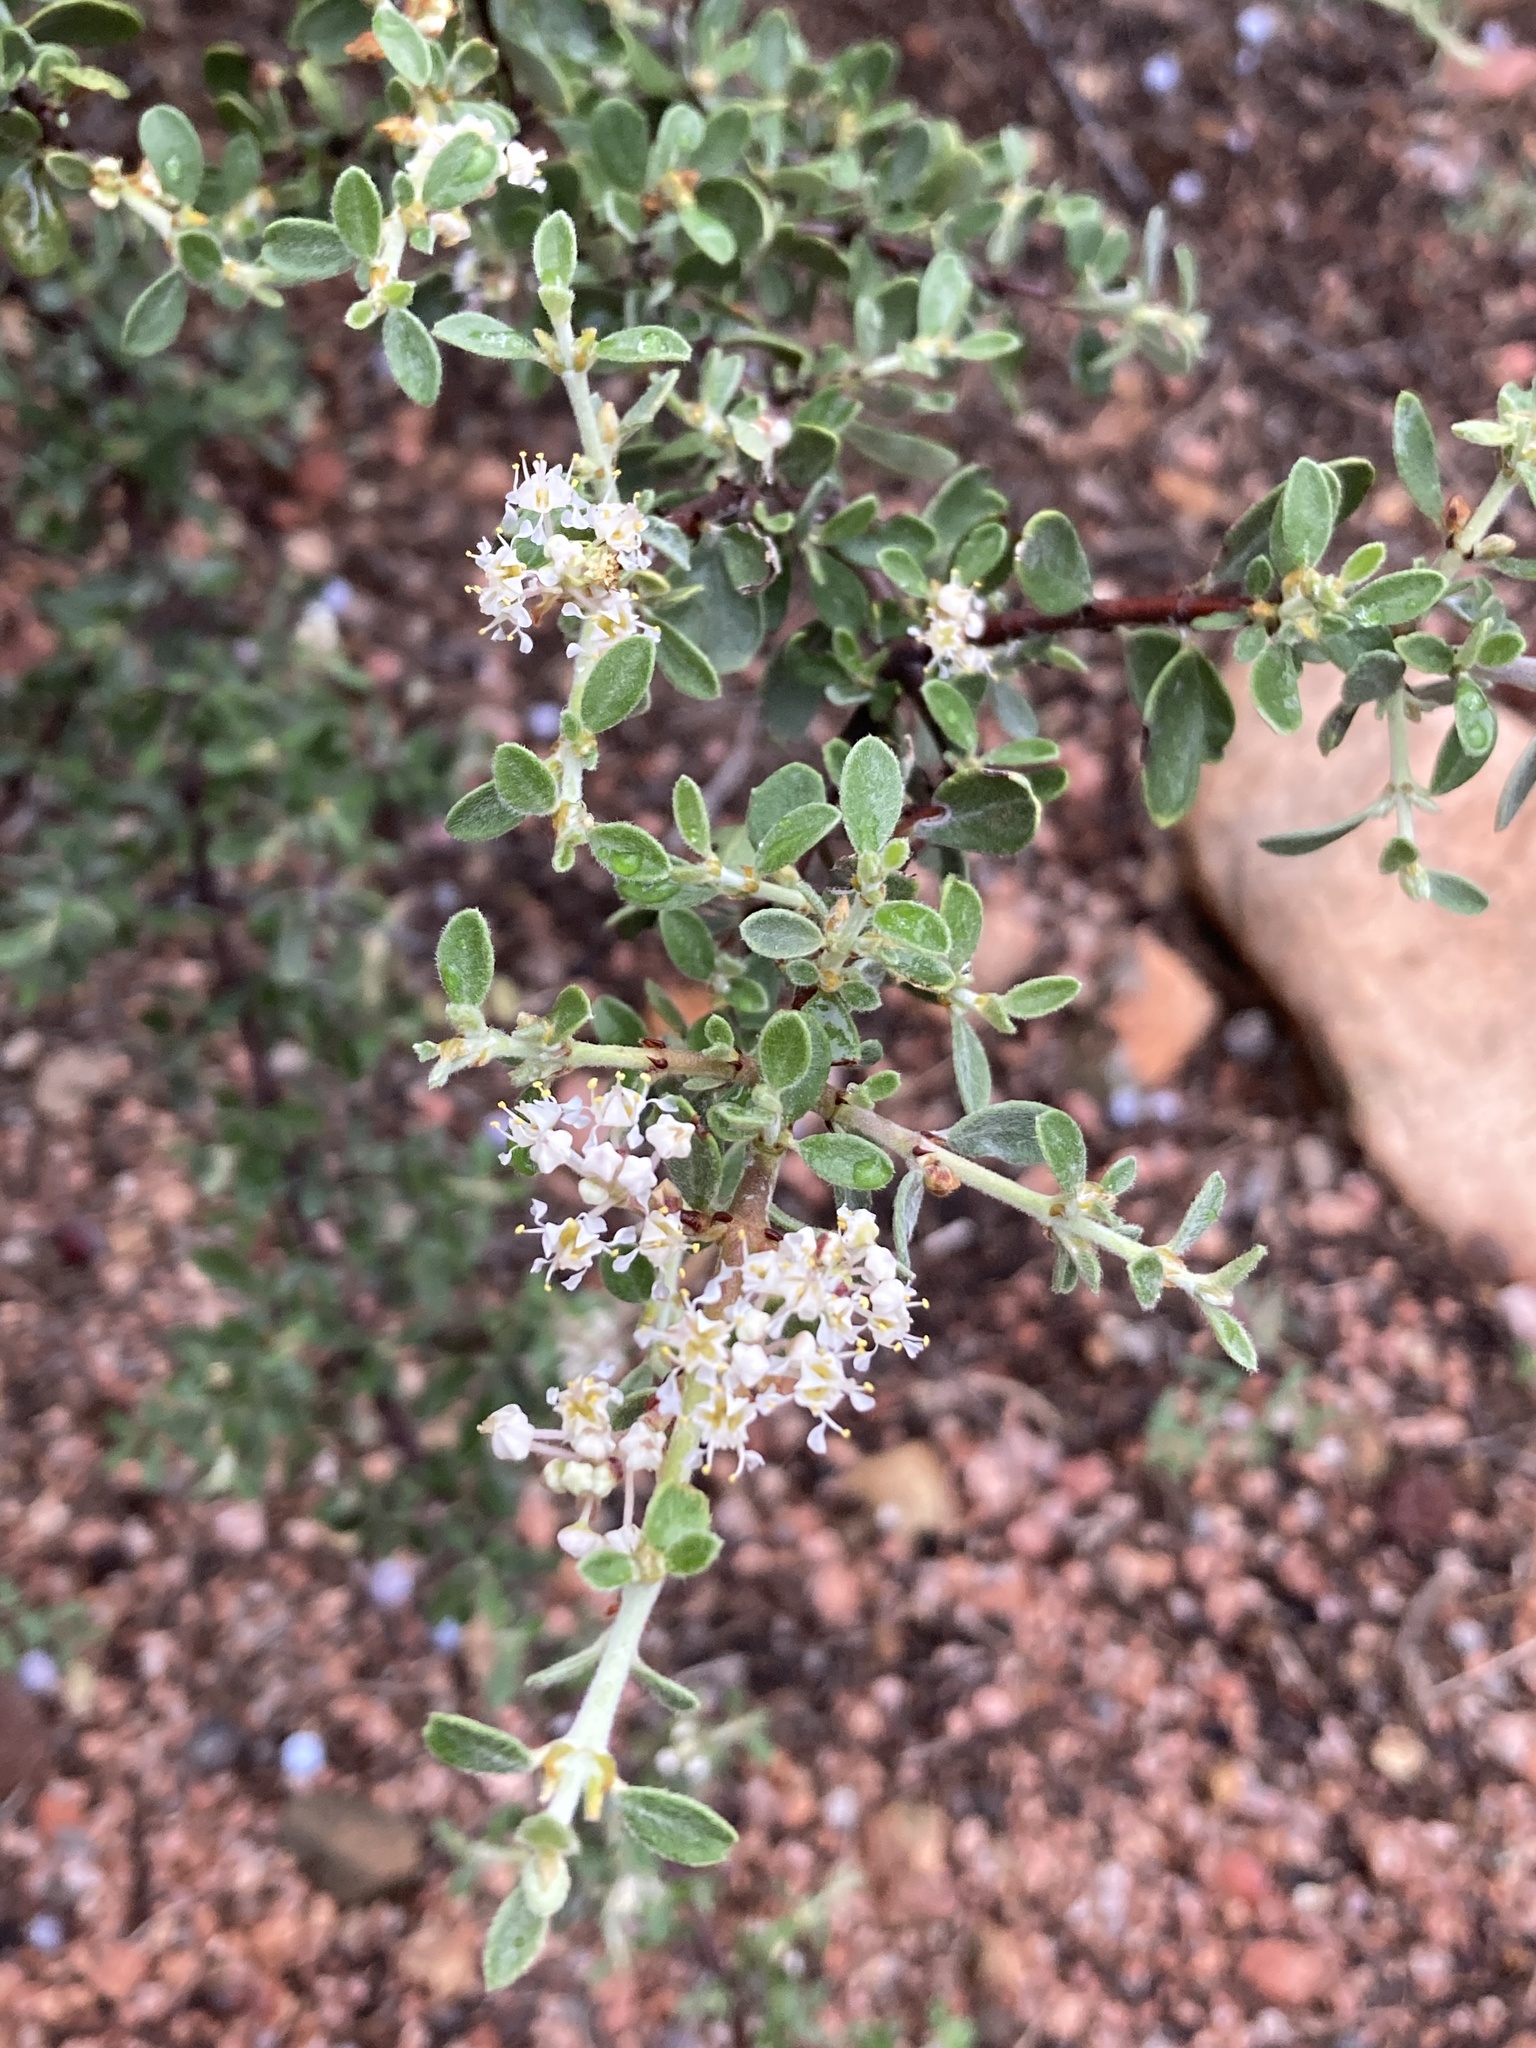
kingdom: Plantae
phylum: Tracheophyta
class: Magnoliopsida
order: Rosales
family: Rhamnaceae
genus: Ceanothus
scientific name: Ceanothus pauciflorus
